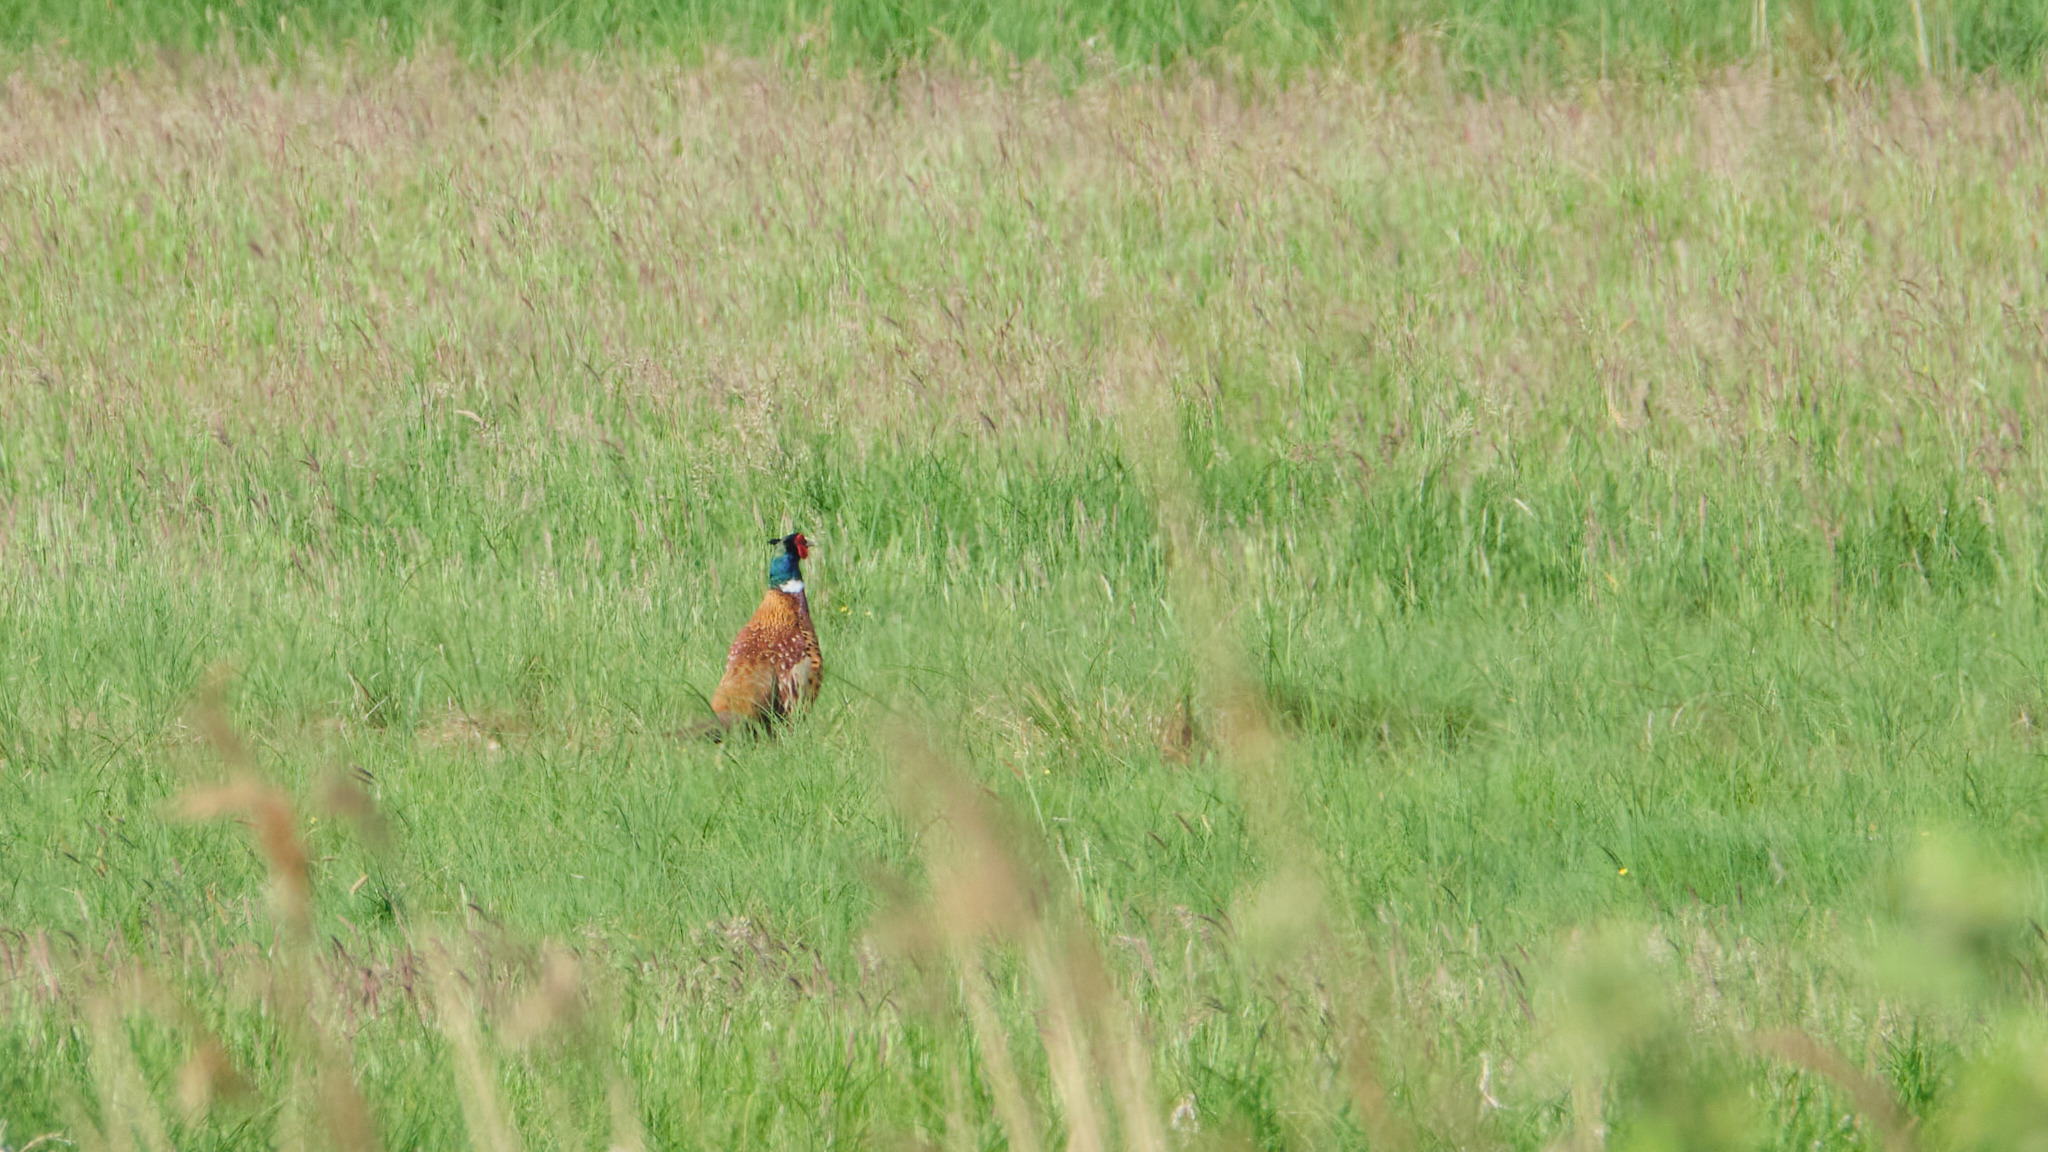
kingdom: Animalia
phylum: Chordata
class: Aves
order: Galliformes
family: Phasianidae
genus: Phasianus
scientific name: Phasianus colchicus
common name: Common pheasant
